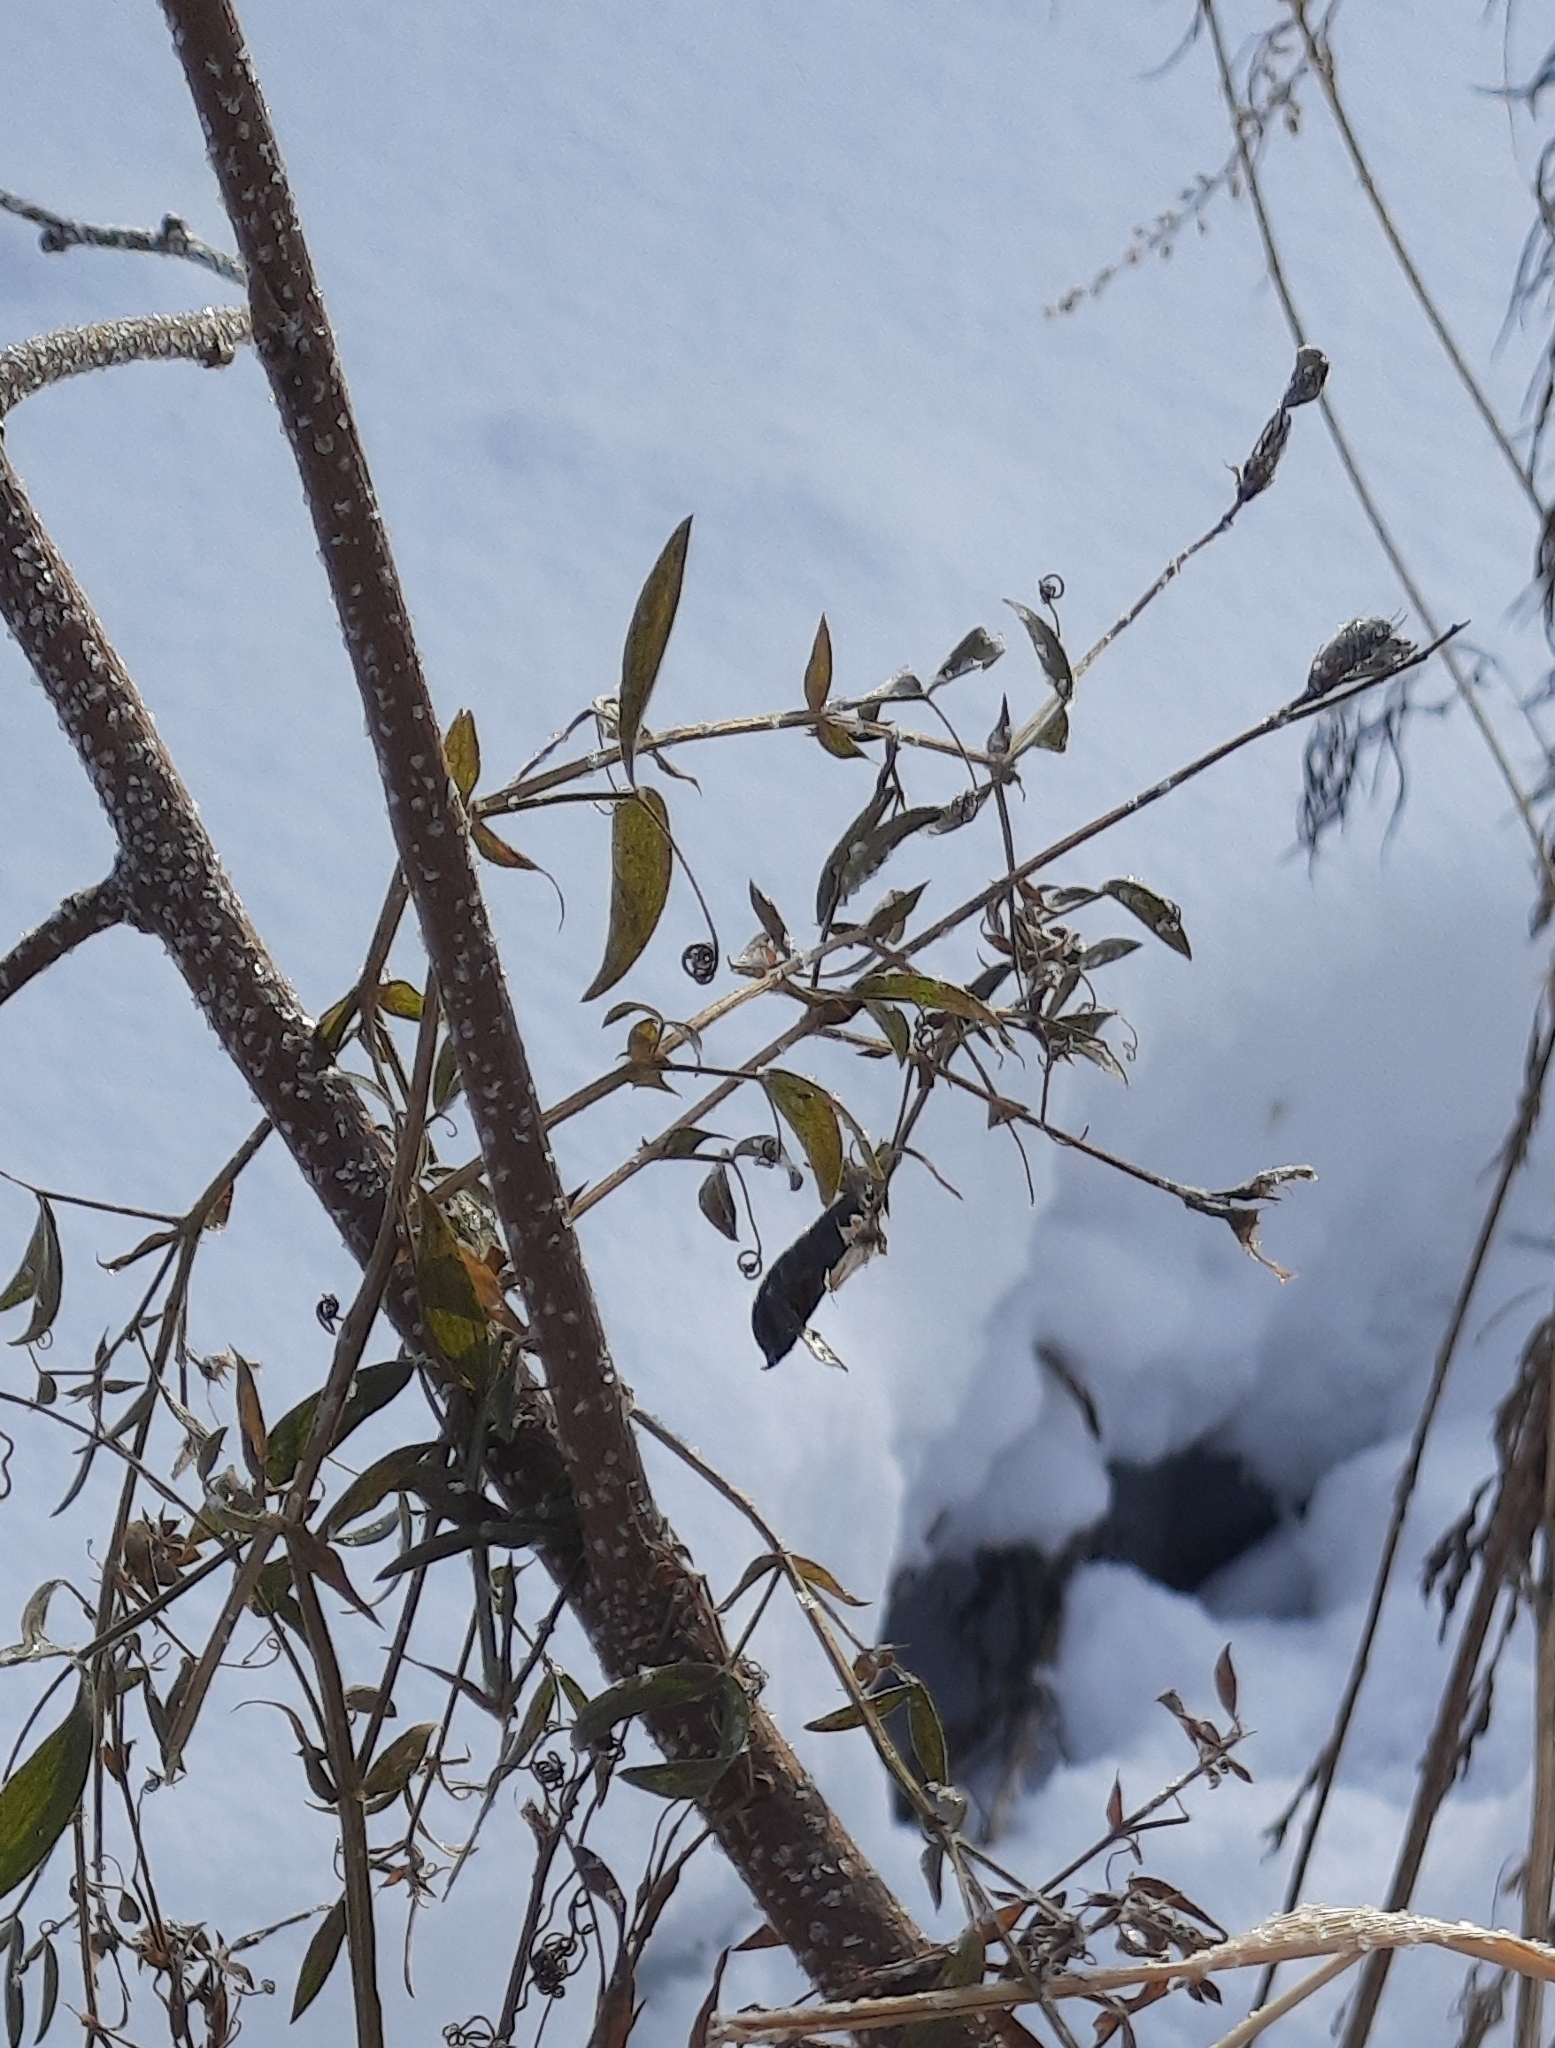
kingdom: Plantae
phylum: Tracheophyta
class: Magnoliopsida
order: Fabales
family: Fabaceae
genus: Lathyrus
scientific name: Lathyrus pratensis
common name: Meadow vetchling
